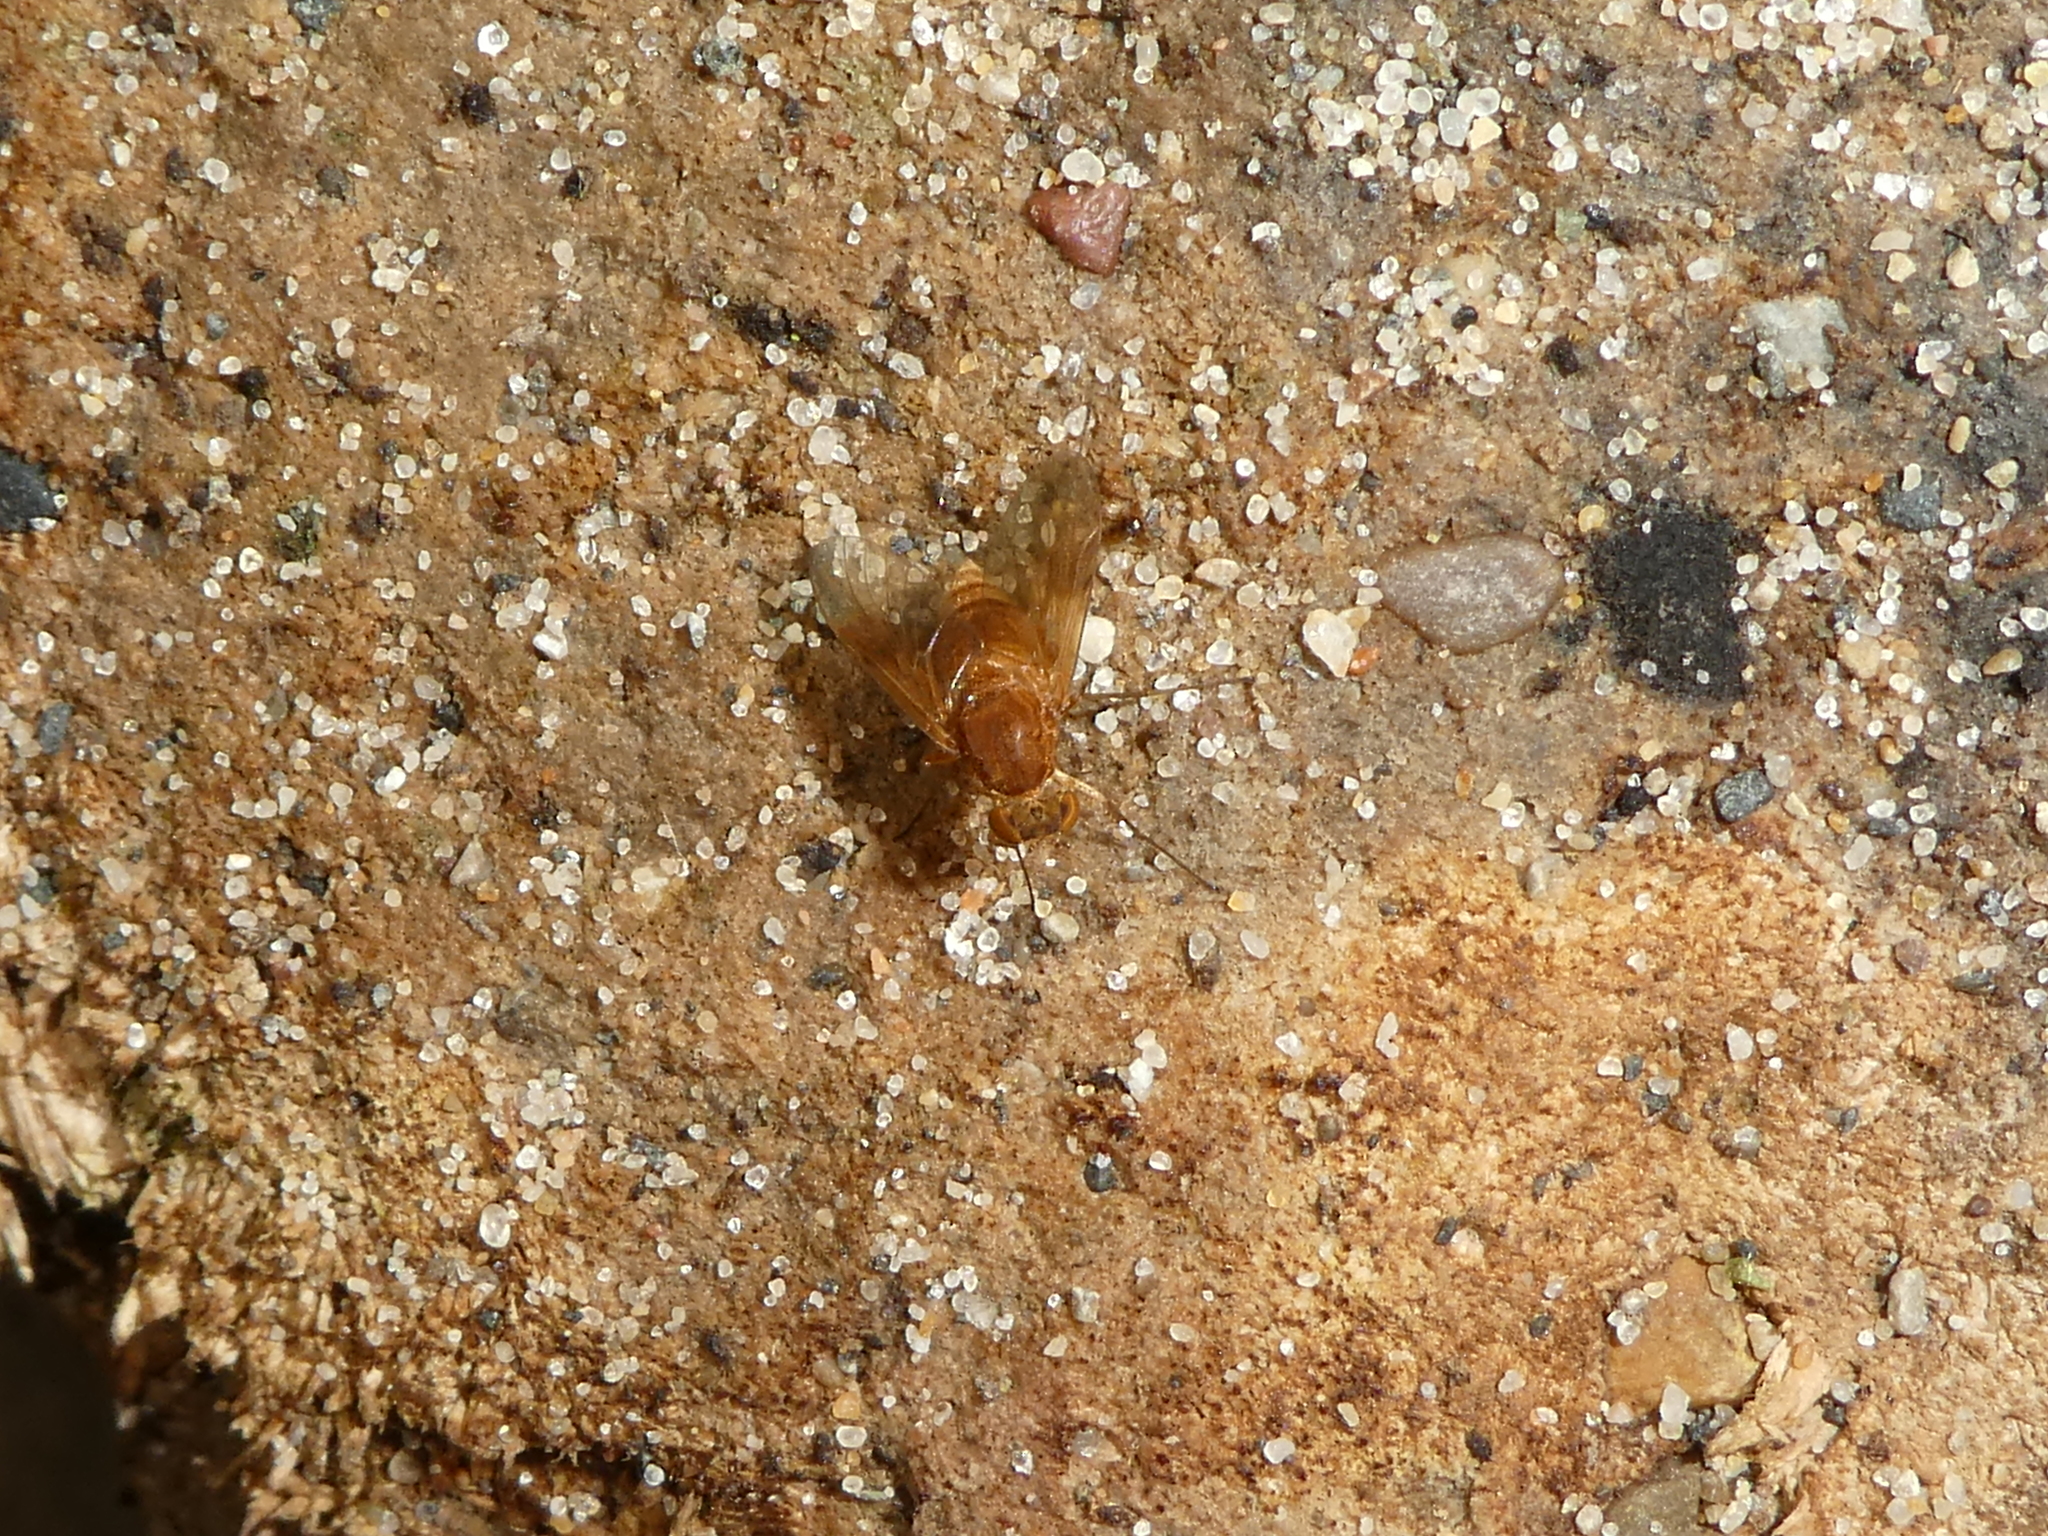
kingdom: Animalia
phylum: Arthropoda
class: Insecta
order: Diptera
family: Rhagionidae
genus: Chrysopilus
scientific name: Chrysopilus quadratus
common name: Quadrate snipe fly
